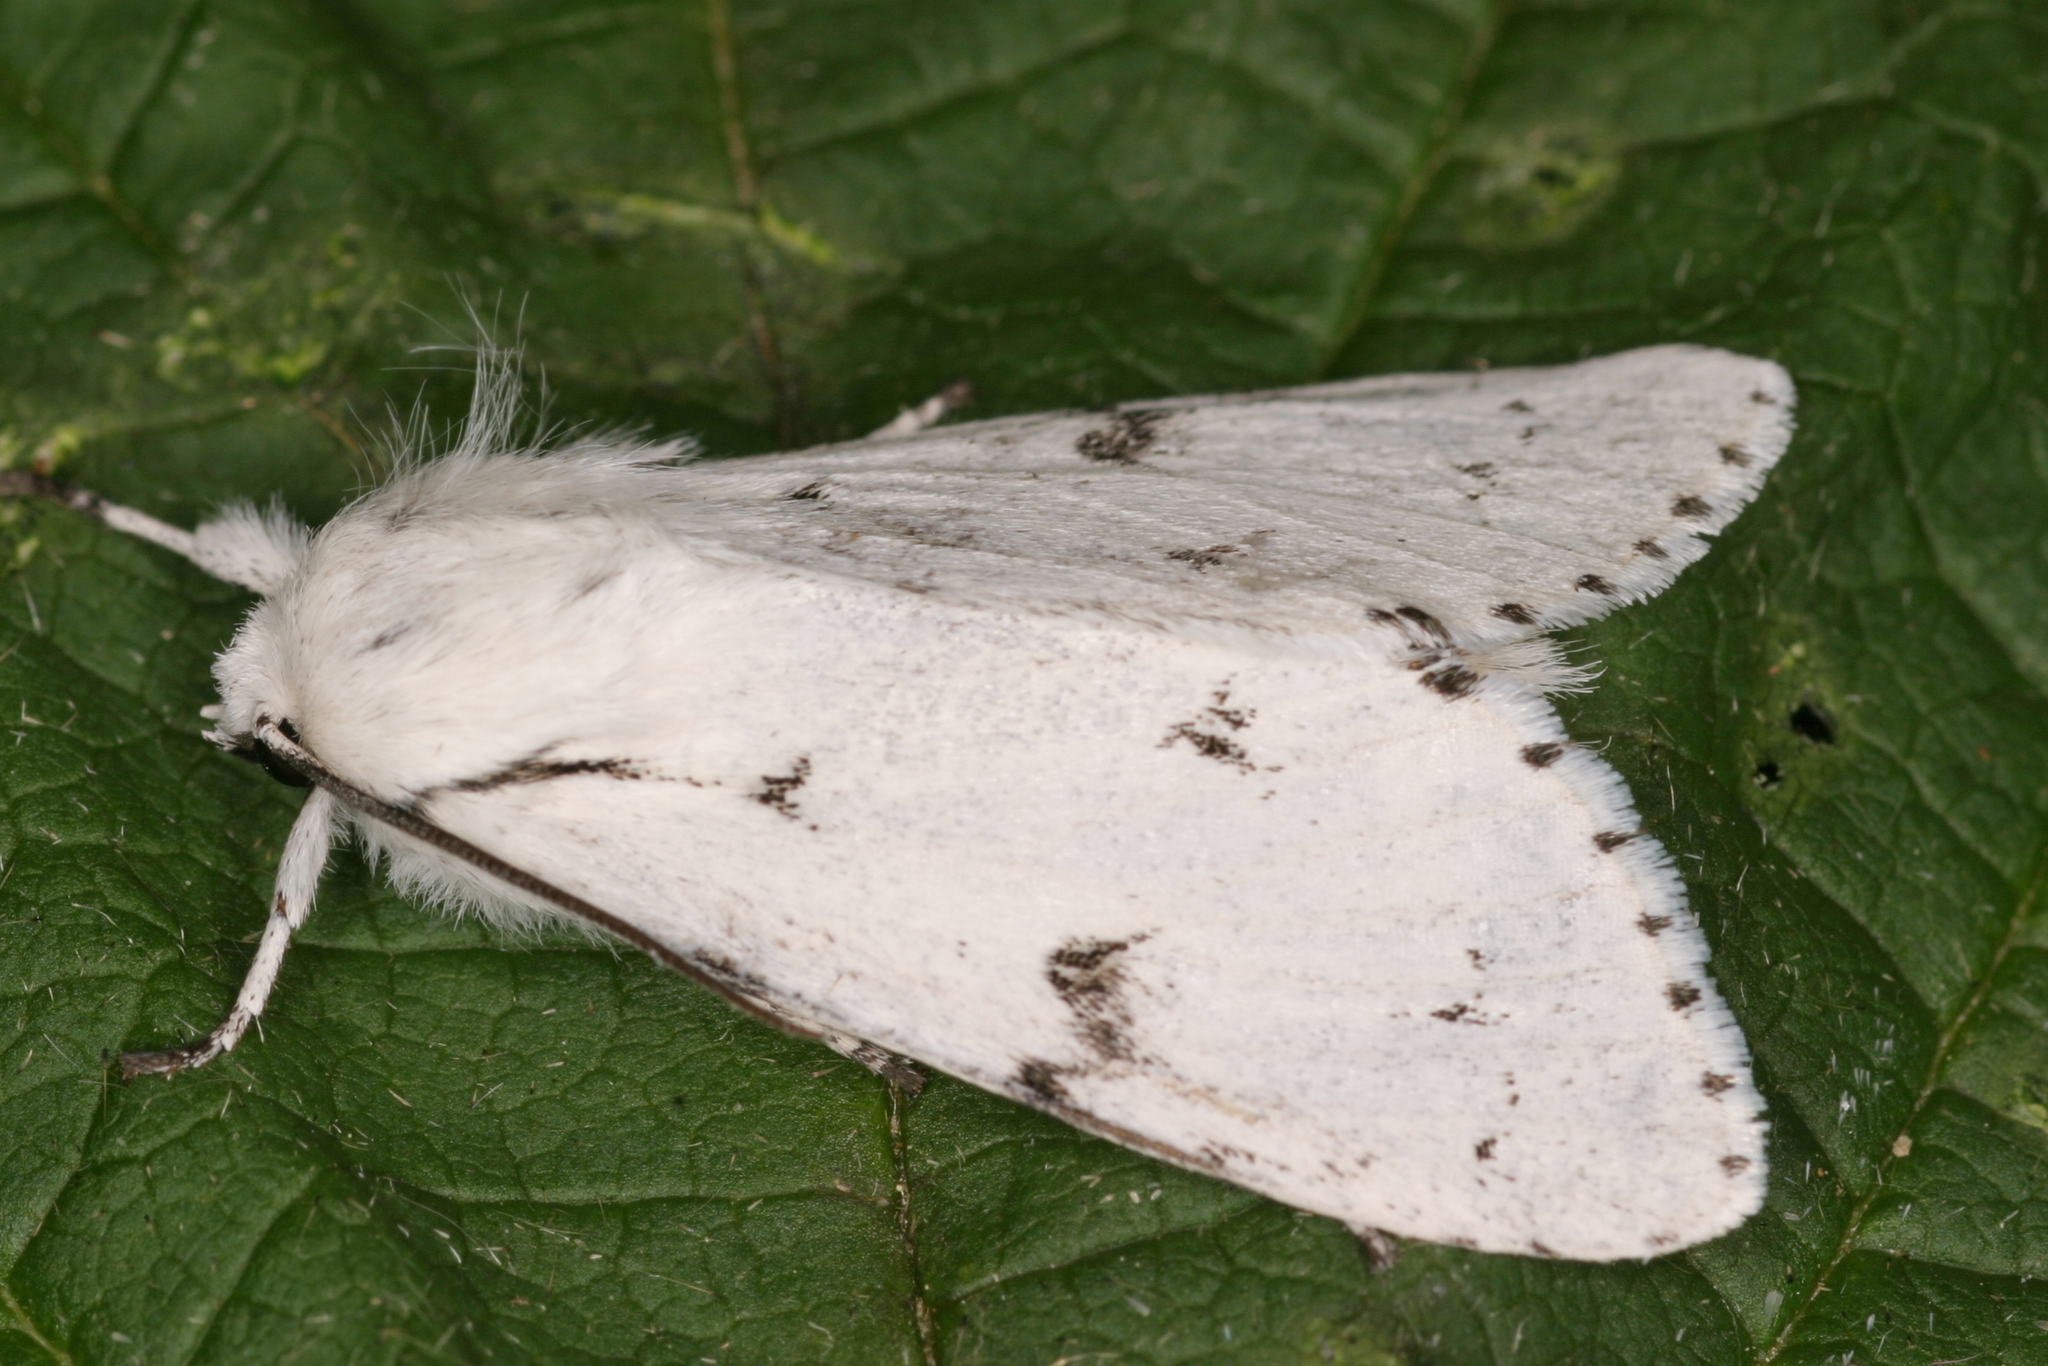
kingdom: Animalia
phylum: Arthropoda
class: Insecta
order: Lepidoptera
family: Noctuidae
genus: Acronicta
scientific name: Acronicta leporina
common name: Miller
